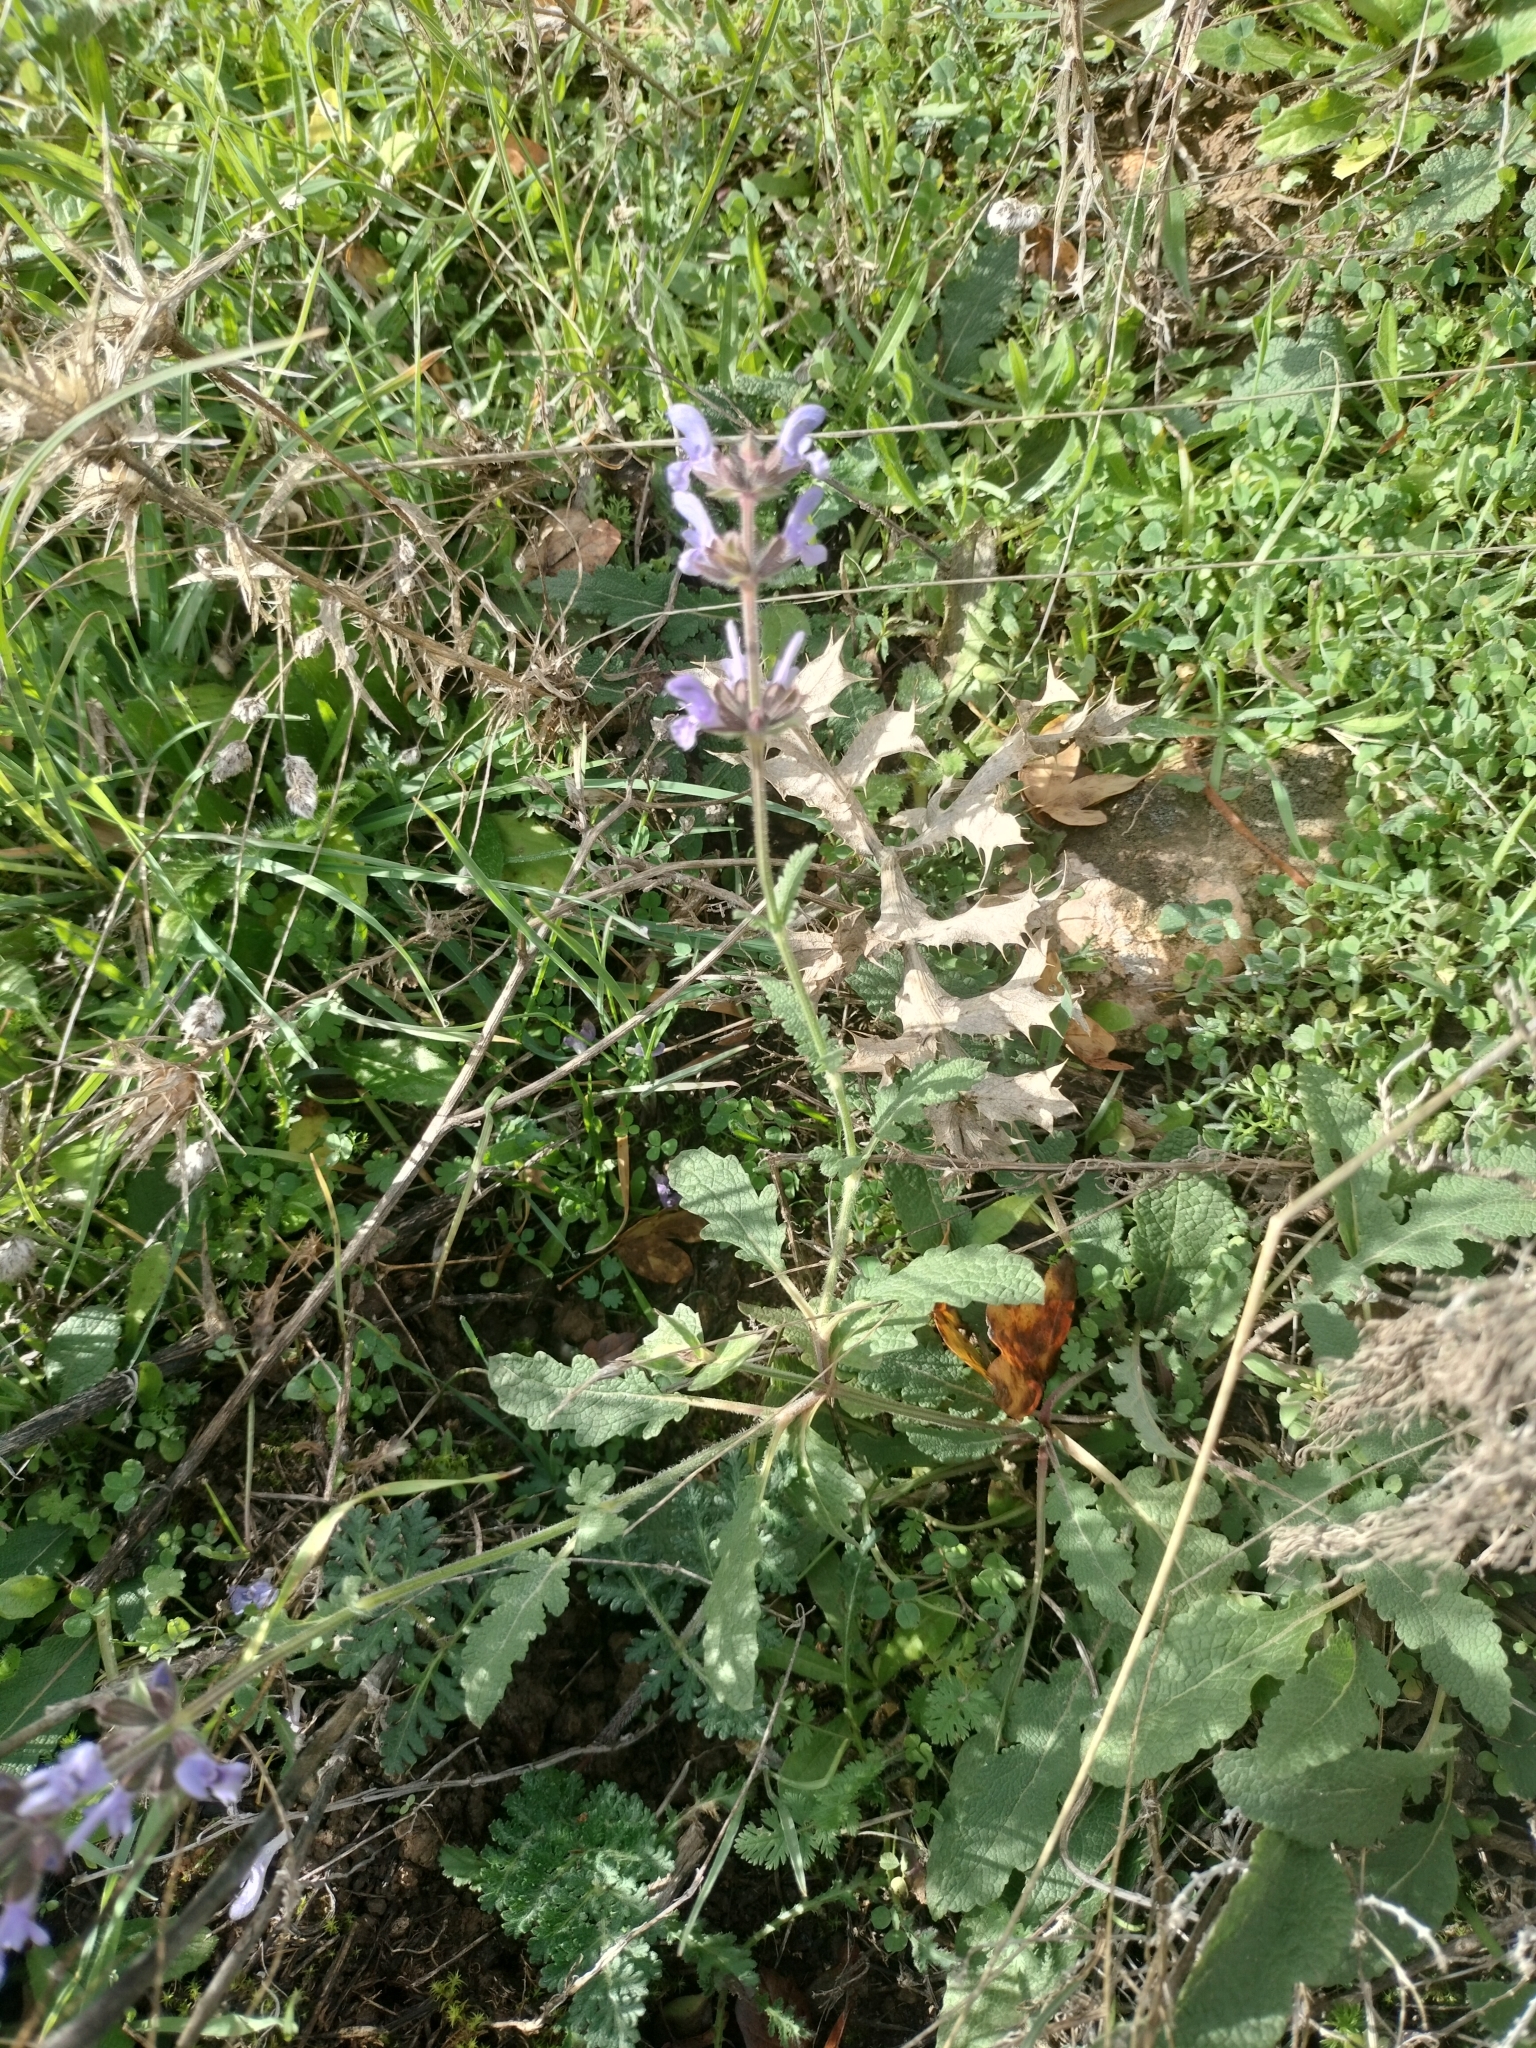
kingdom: Plantae
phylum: Tracheophyta
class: Magnoliopsida
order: Lamiales
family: Lamiaceae
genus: Salvia
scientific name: Salvia verbenaca
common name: Wild clary
